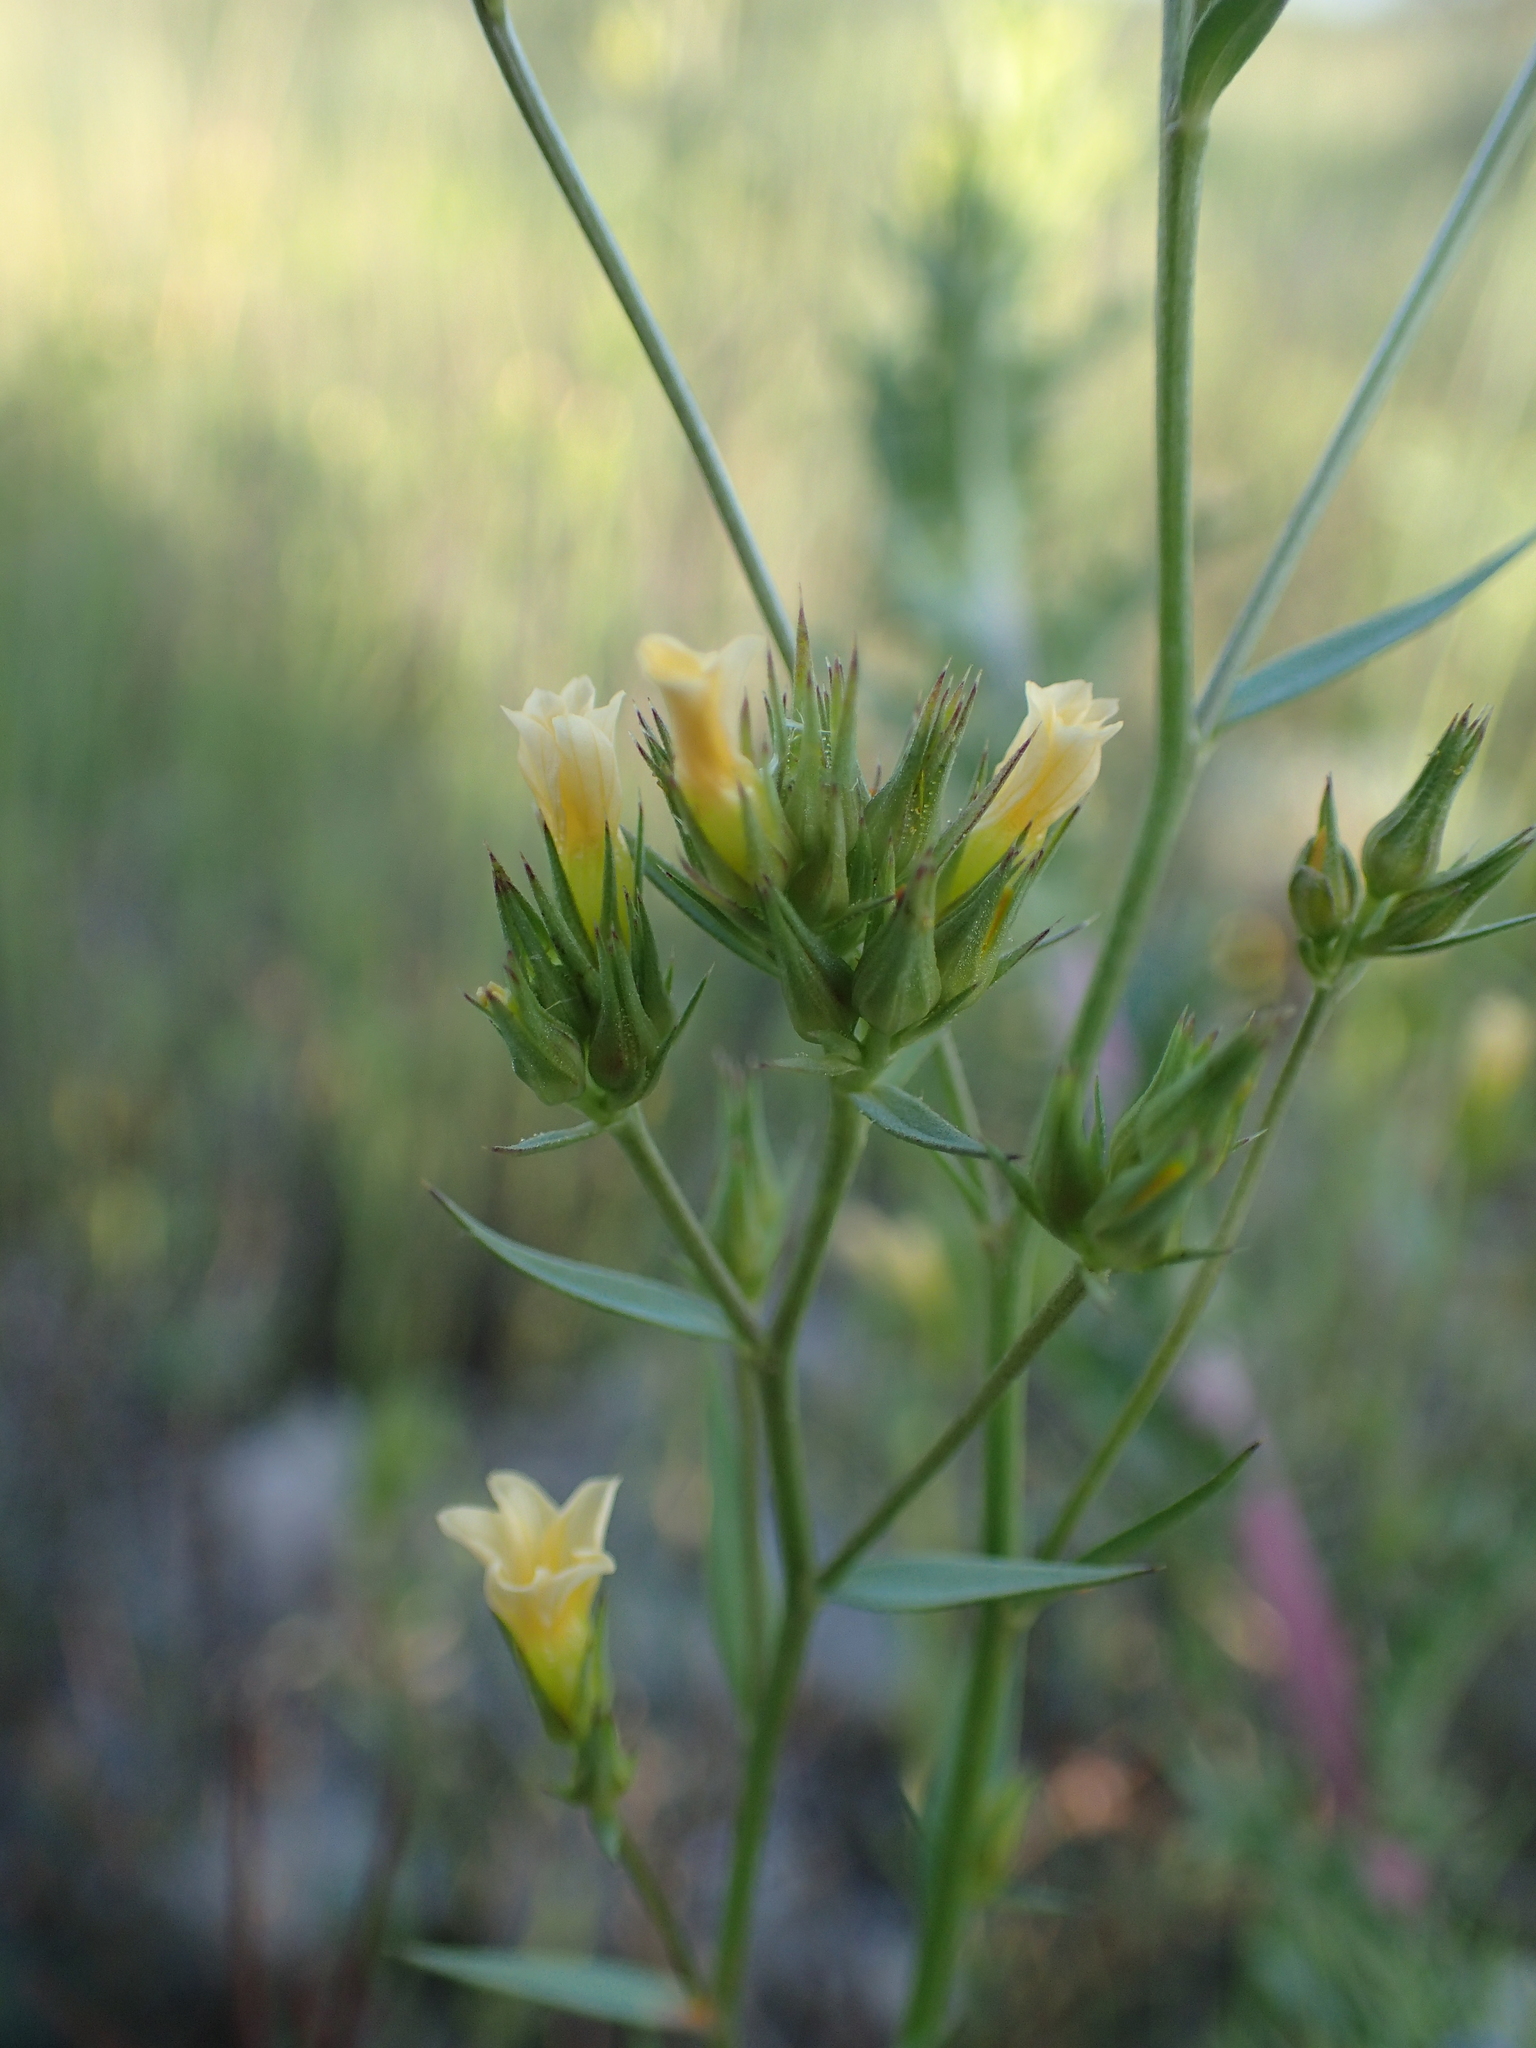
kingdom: Plantae
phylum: Tracheophyta
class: Magnoliopsida
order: Malpighiales
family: Linaceae
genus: Linum
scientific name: Linum strictum
